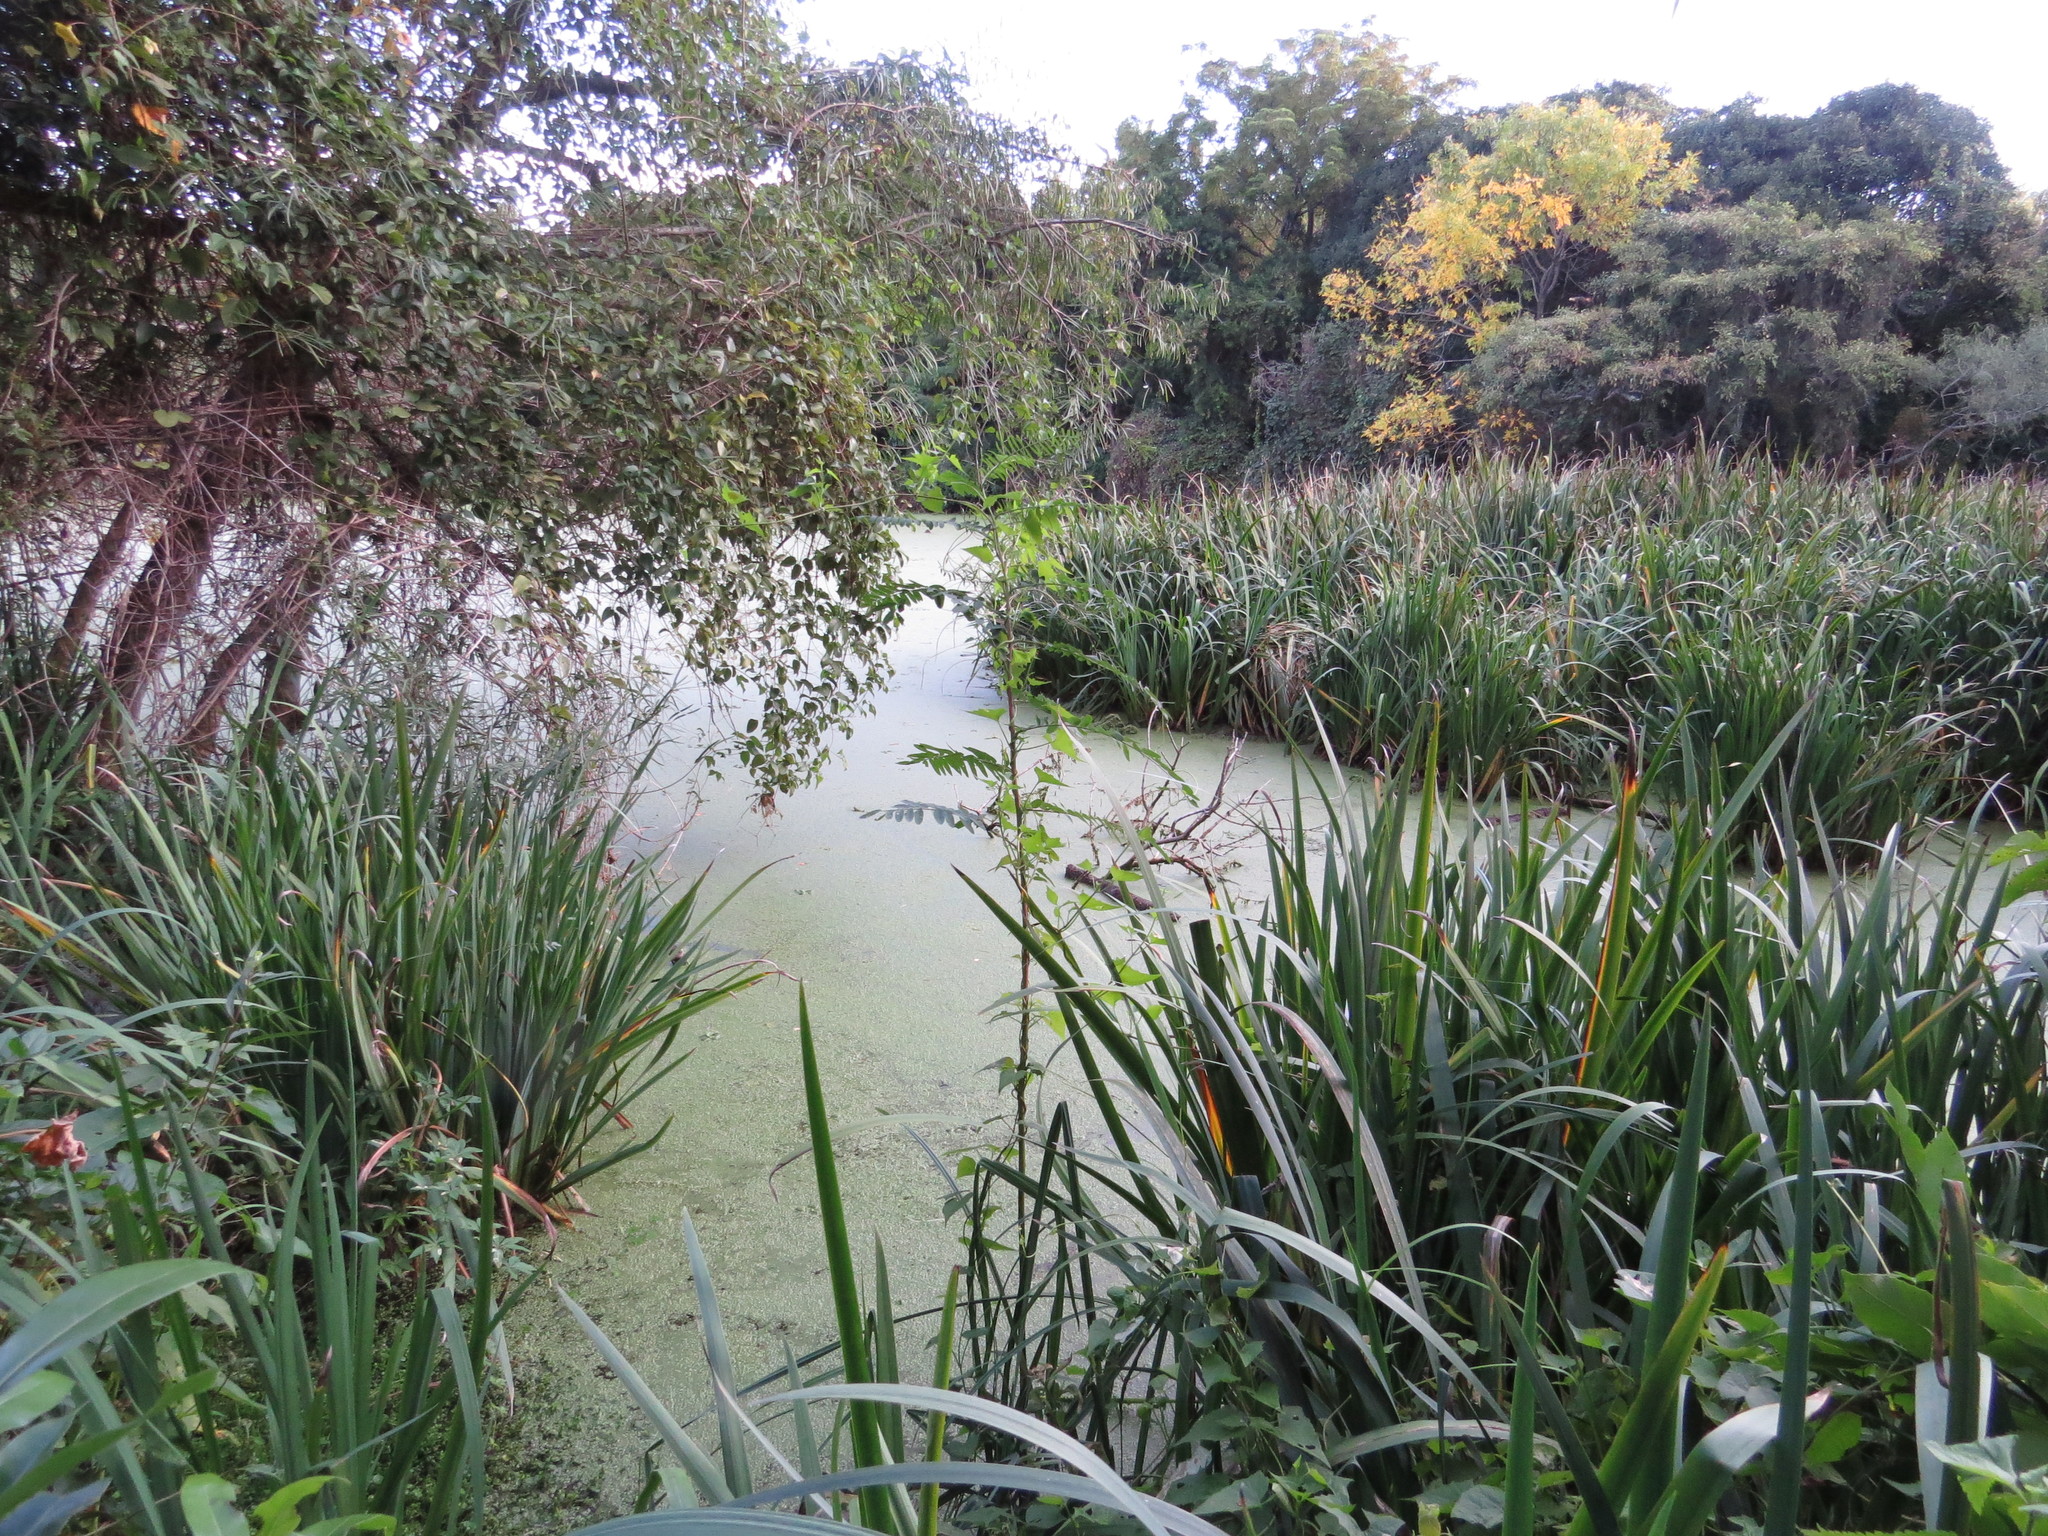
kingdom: Plantae
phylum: Tracheophyta
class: Liliopsida
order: Asparagales
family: Iridaceae
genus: Iris
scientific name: Iris pseudacorus
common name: Yellow flag
